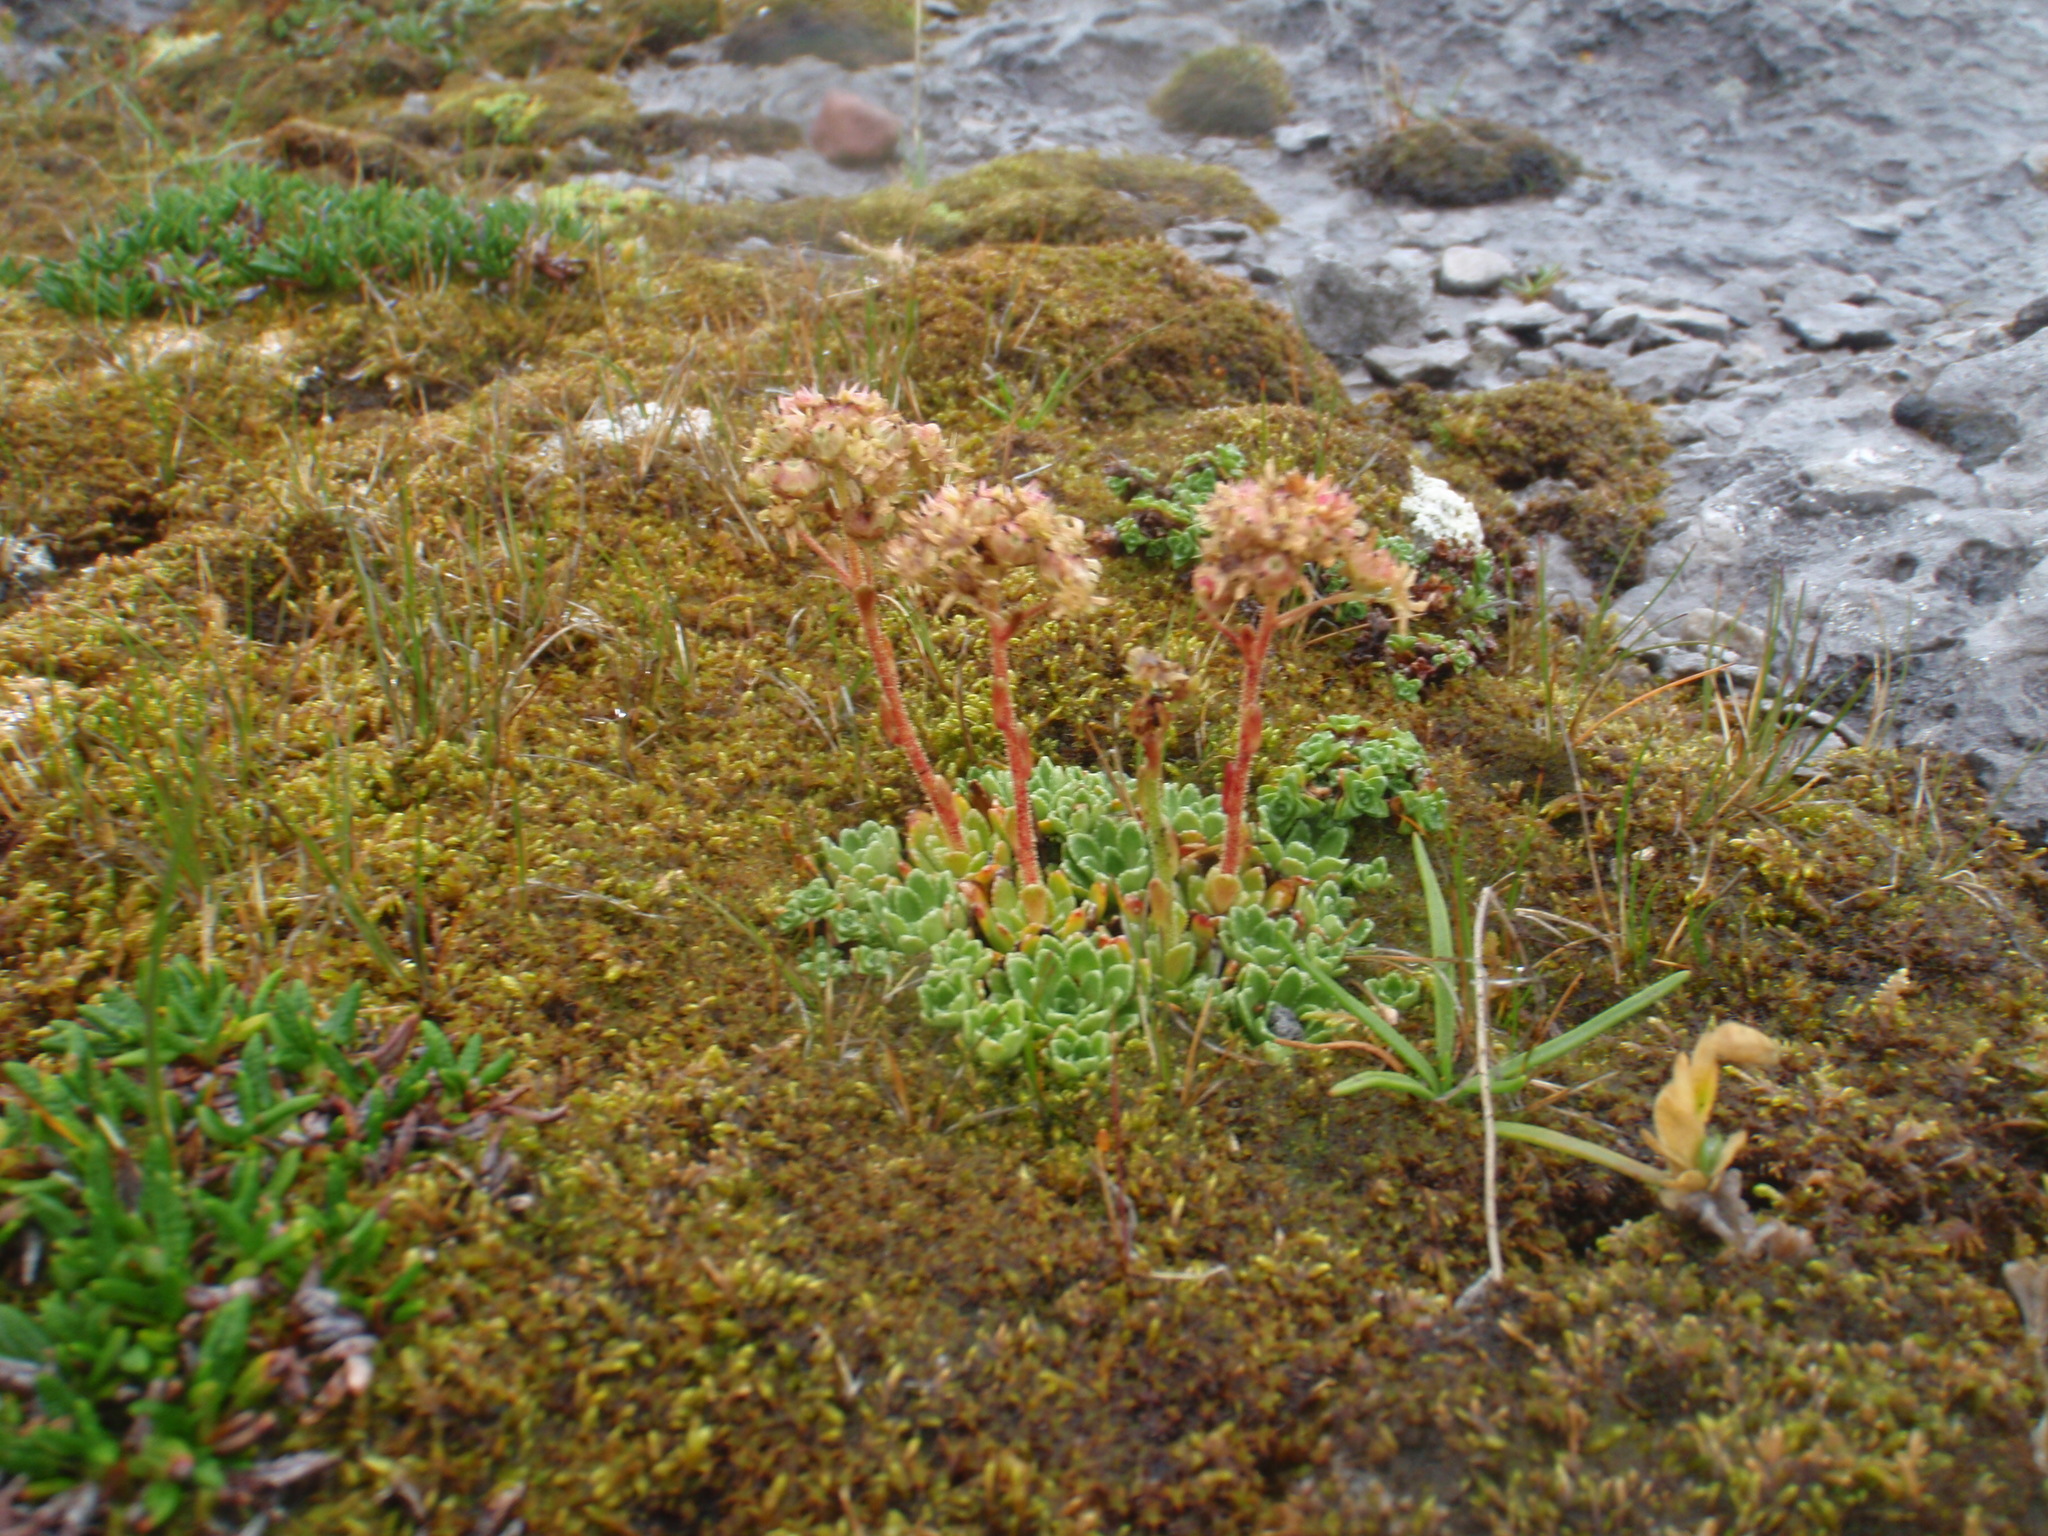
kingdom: Plantae
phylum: Tracheophyta
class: Magnoliopsida
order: Saxifragales
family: Saxifragaceae
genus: Saxifraga
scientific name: Saxifraga paniculata
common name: Livelong saxifrage
